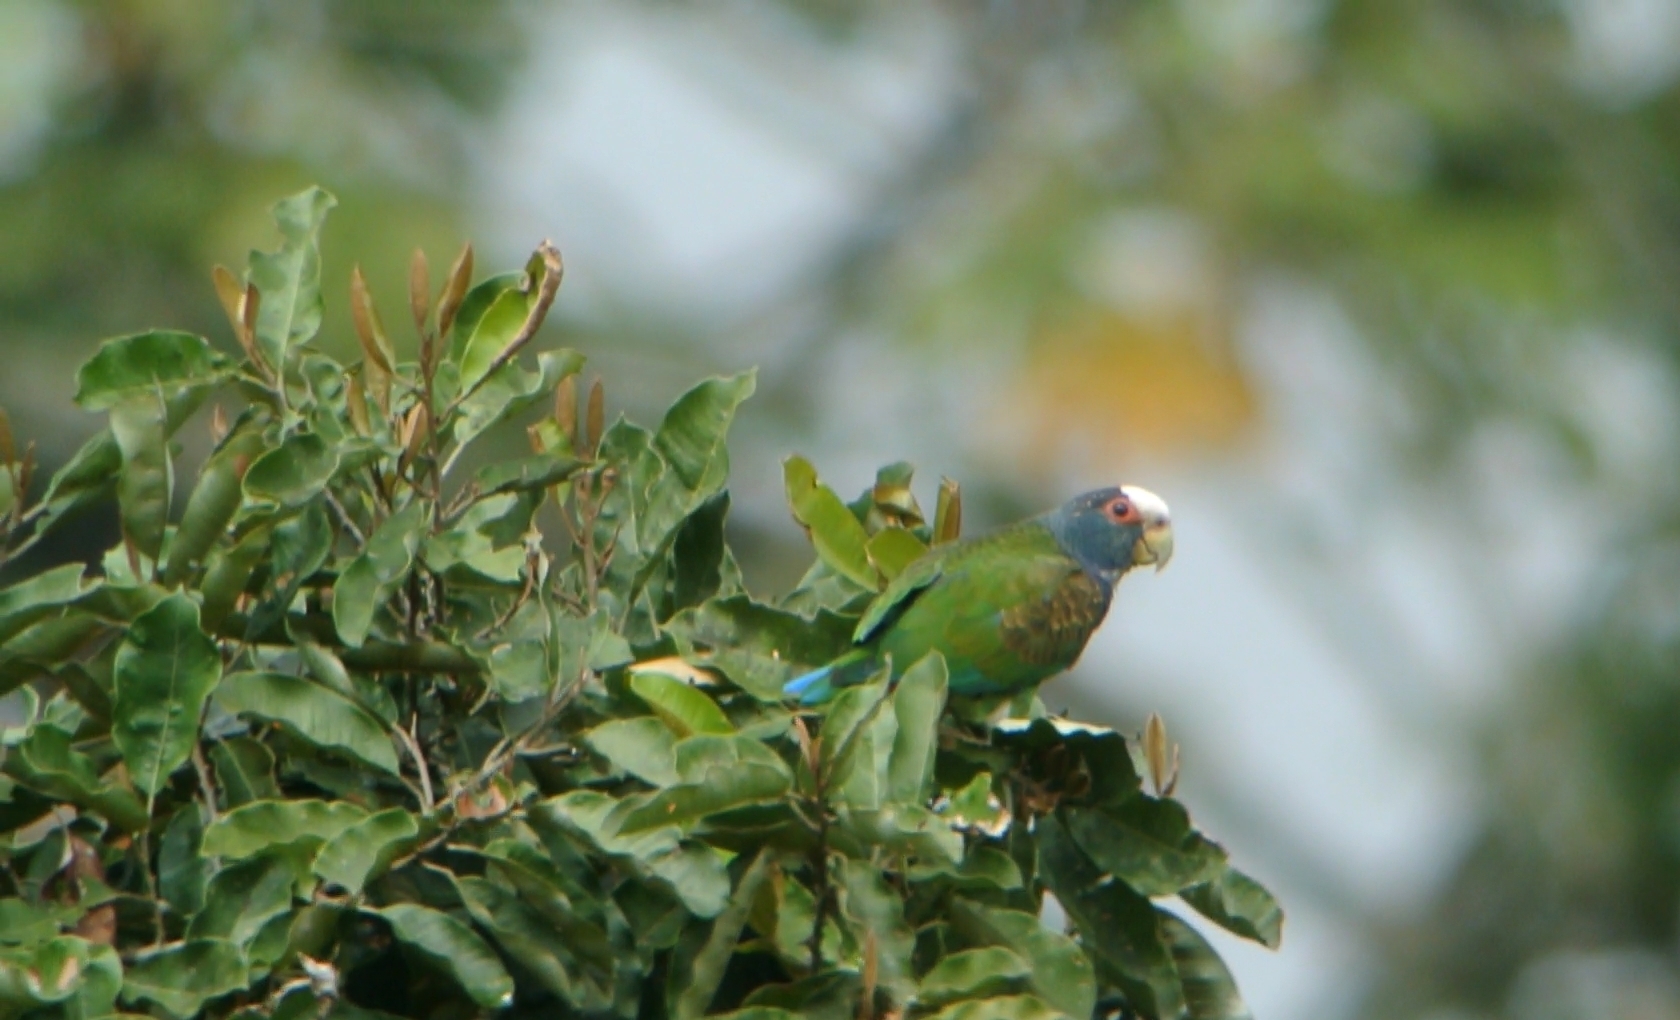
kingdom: Animalia
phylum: Chordata
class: Aves
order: Psittaciformes
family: Psittacidae
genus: Pionus
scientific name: Pionus senilis
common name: White-crowned parrot
